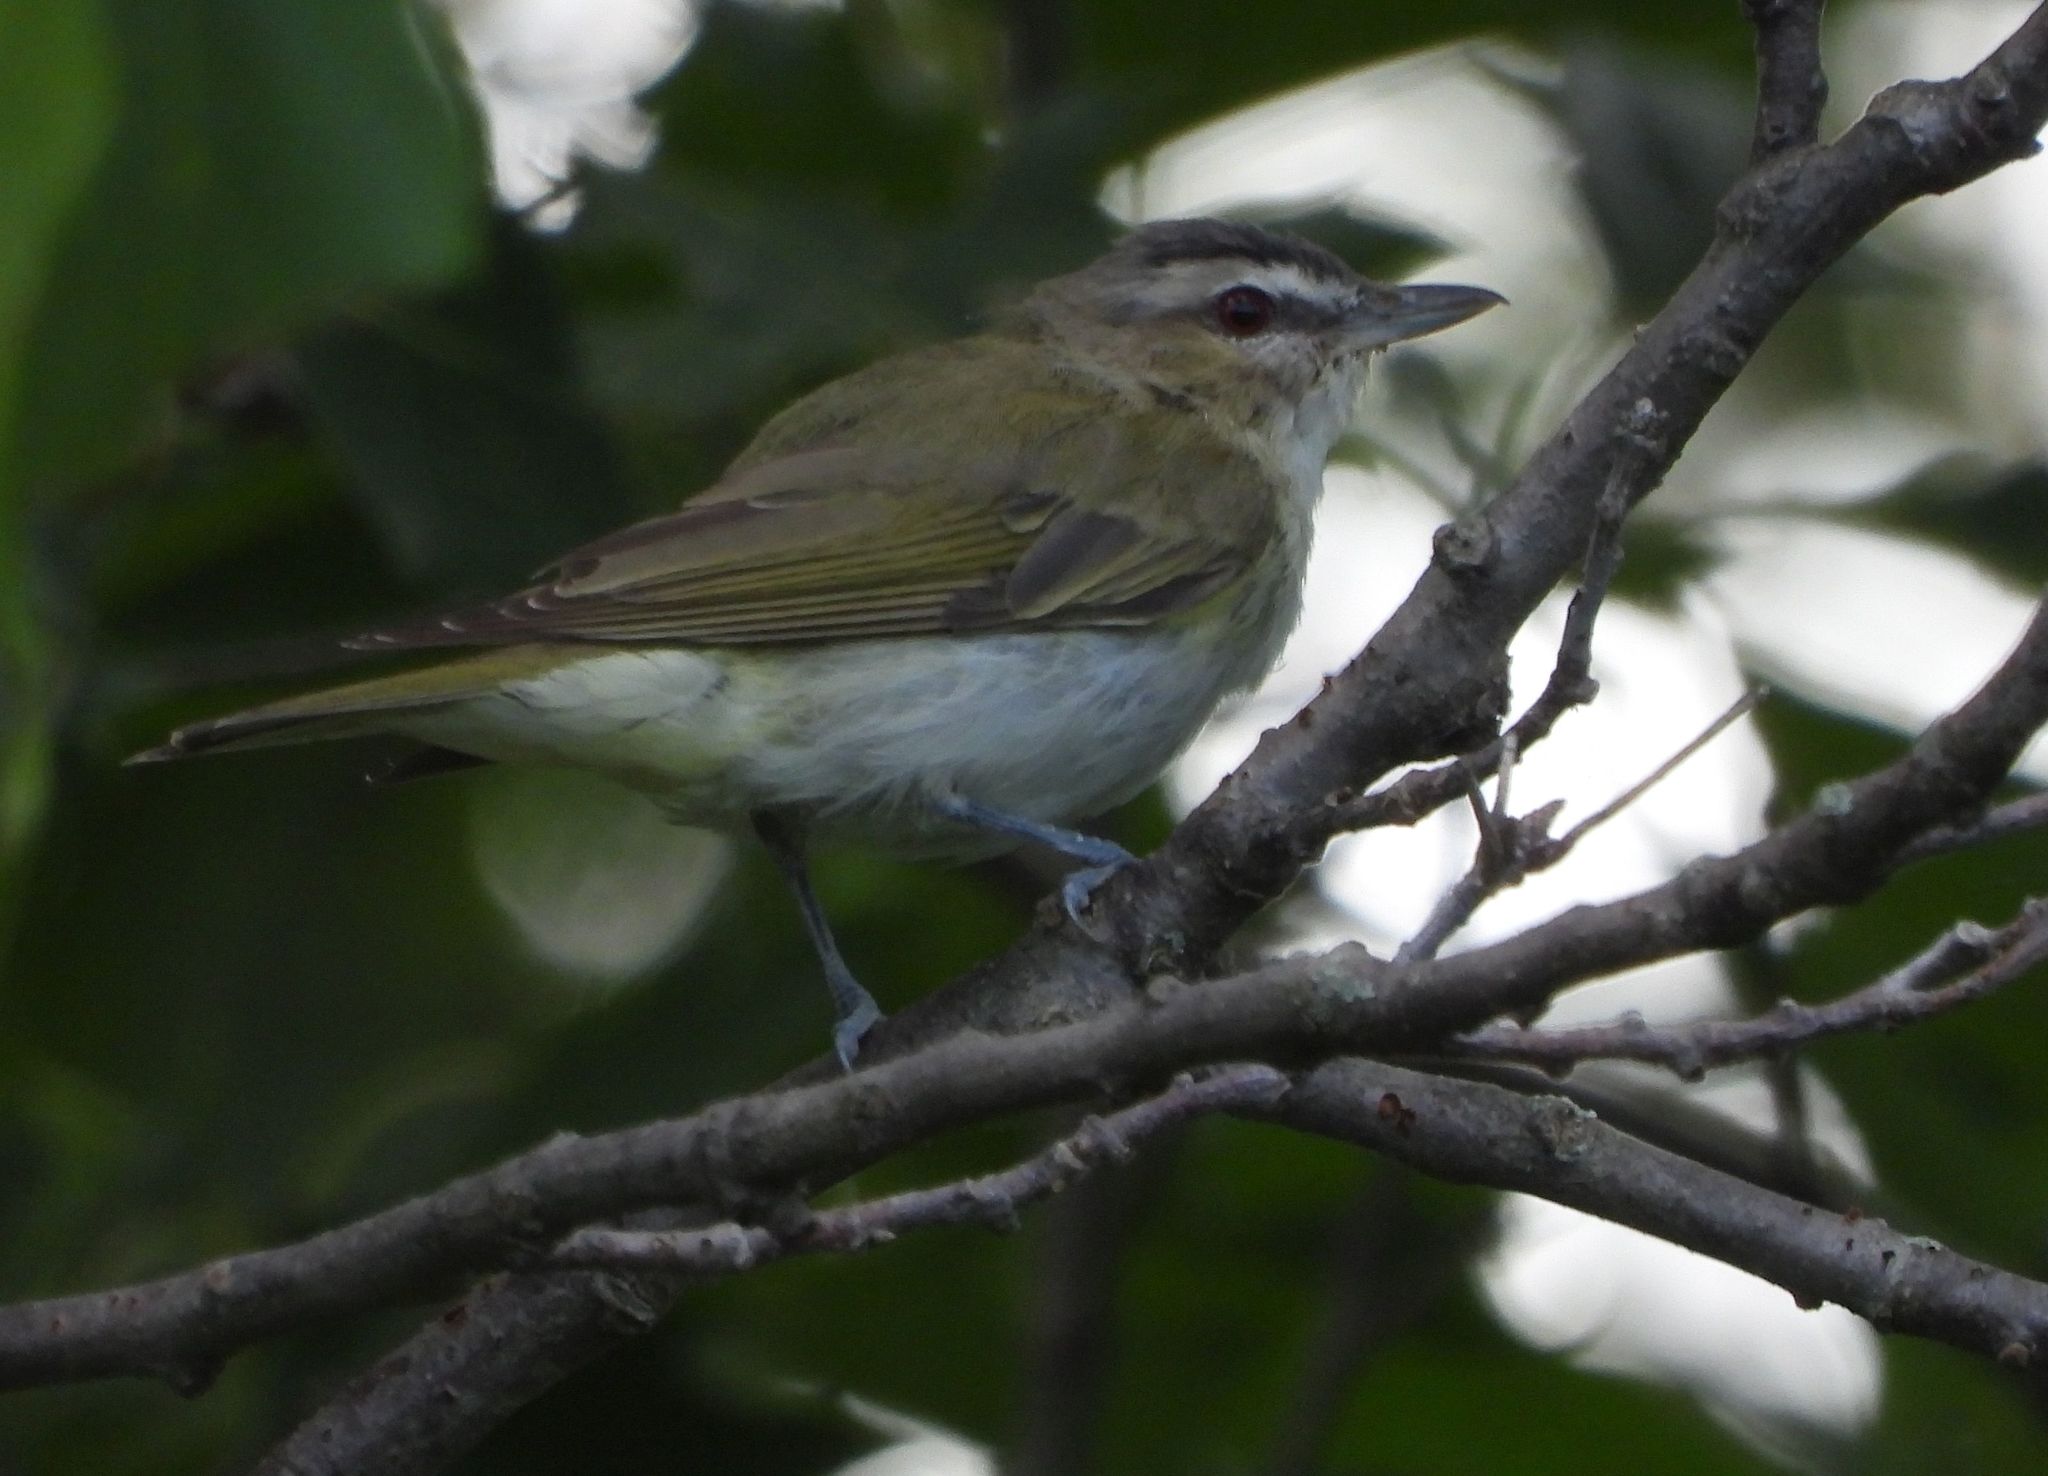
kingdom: Animalia
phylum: Chordata
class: Aves
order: Passeriformes
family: Vireonidae
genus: Vireo
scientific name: Vireo olivaceus
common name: Red-eyed vireo
